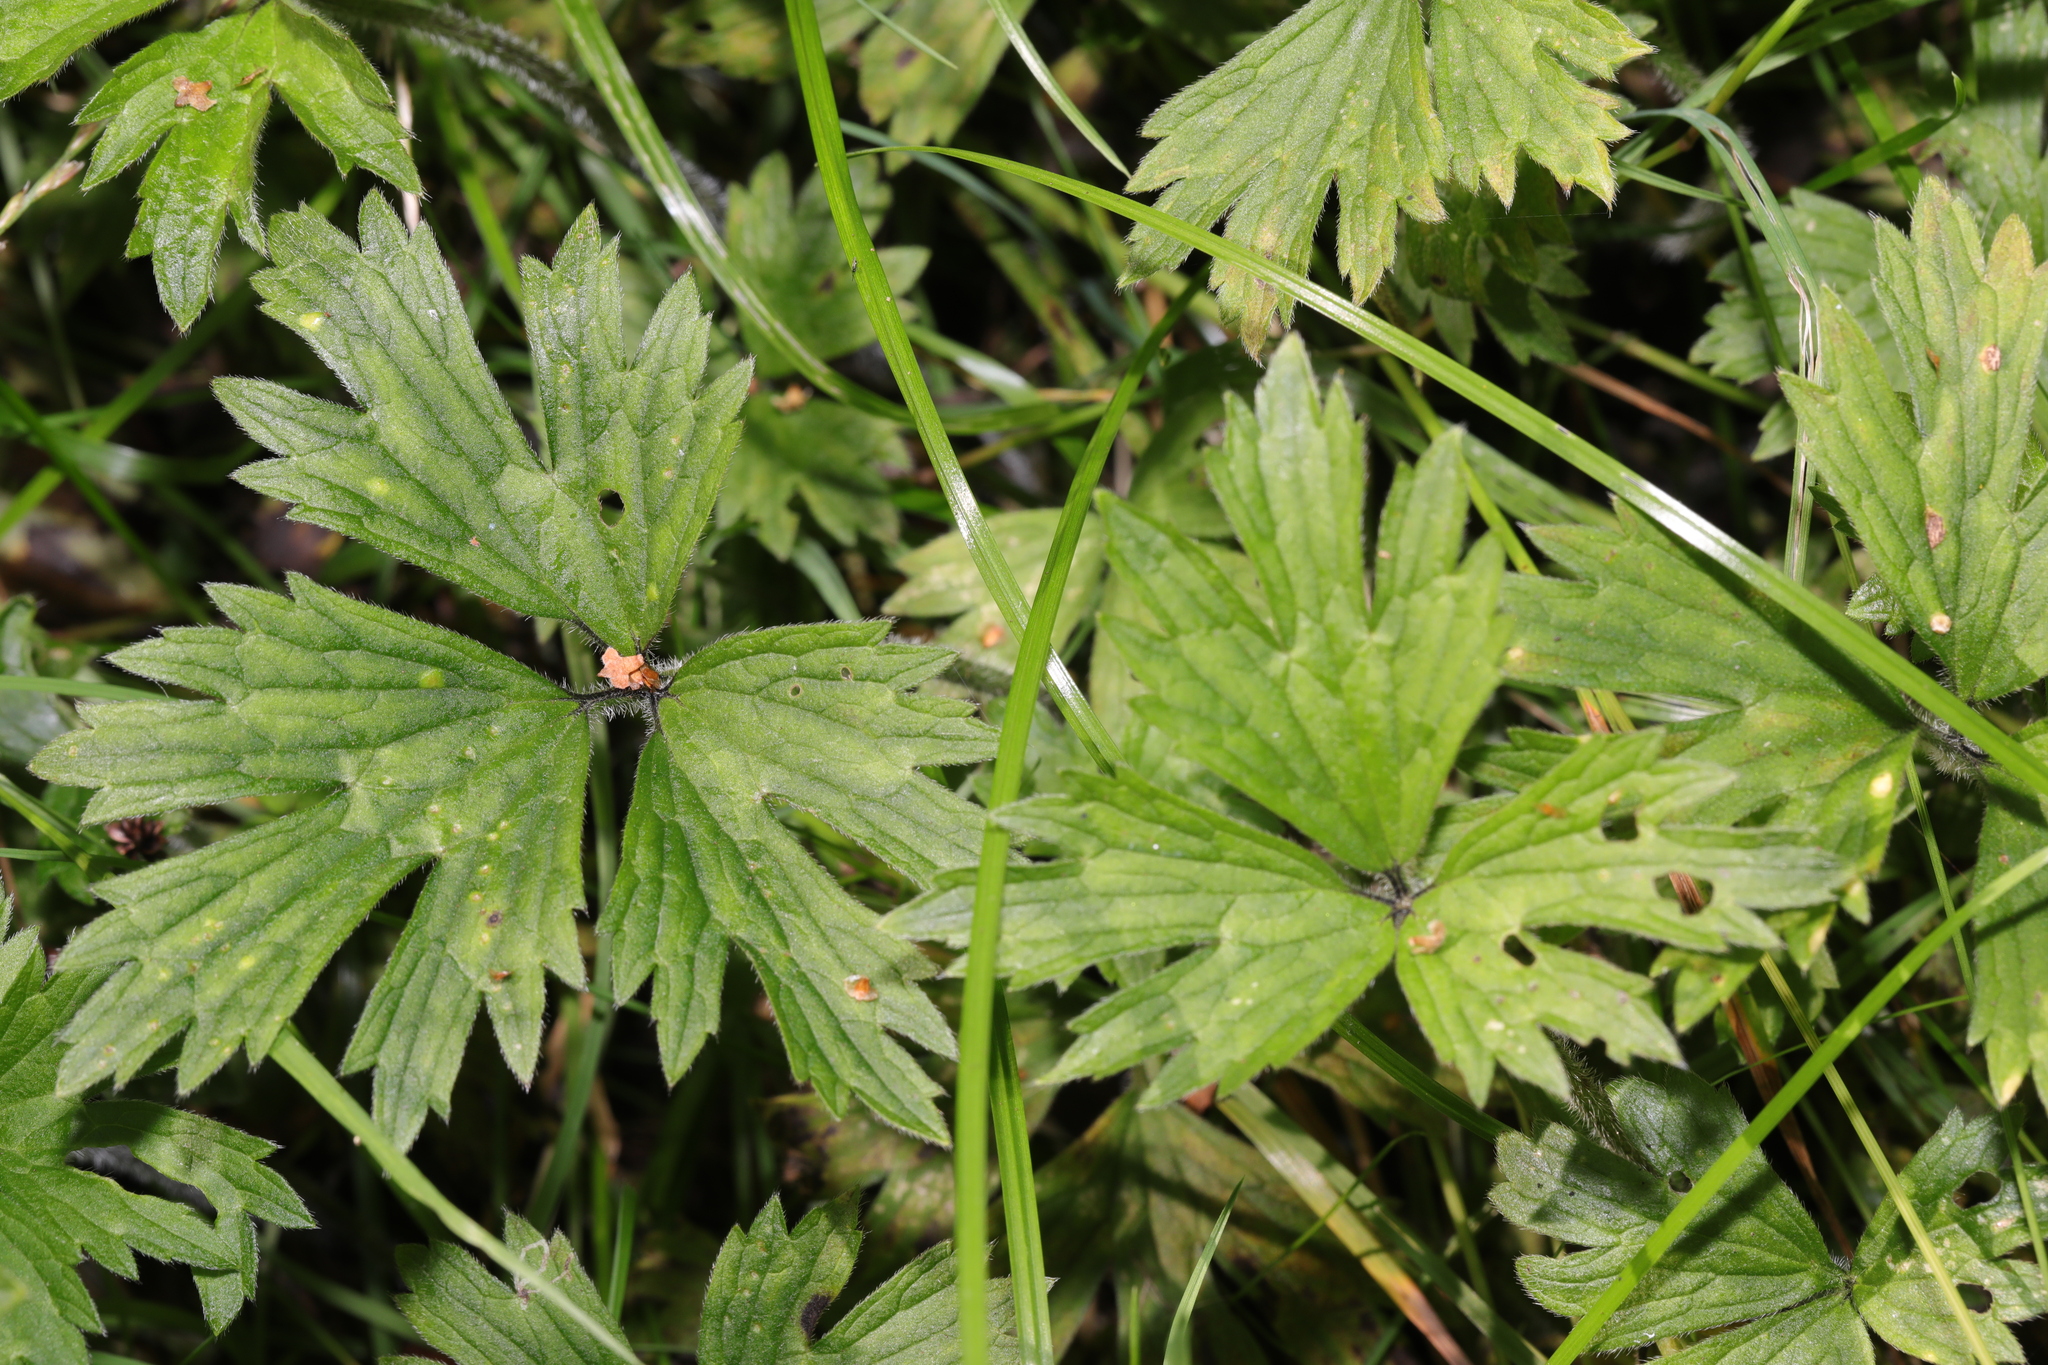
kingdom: Plantae
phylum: Tracheophyta
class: Magnoliopsida
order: Ranunculales
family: Ranunculaceae
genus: Ranunculus
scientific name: Ranunculus repens
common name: Creeping buttercup
